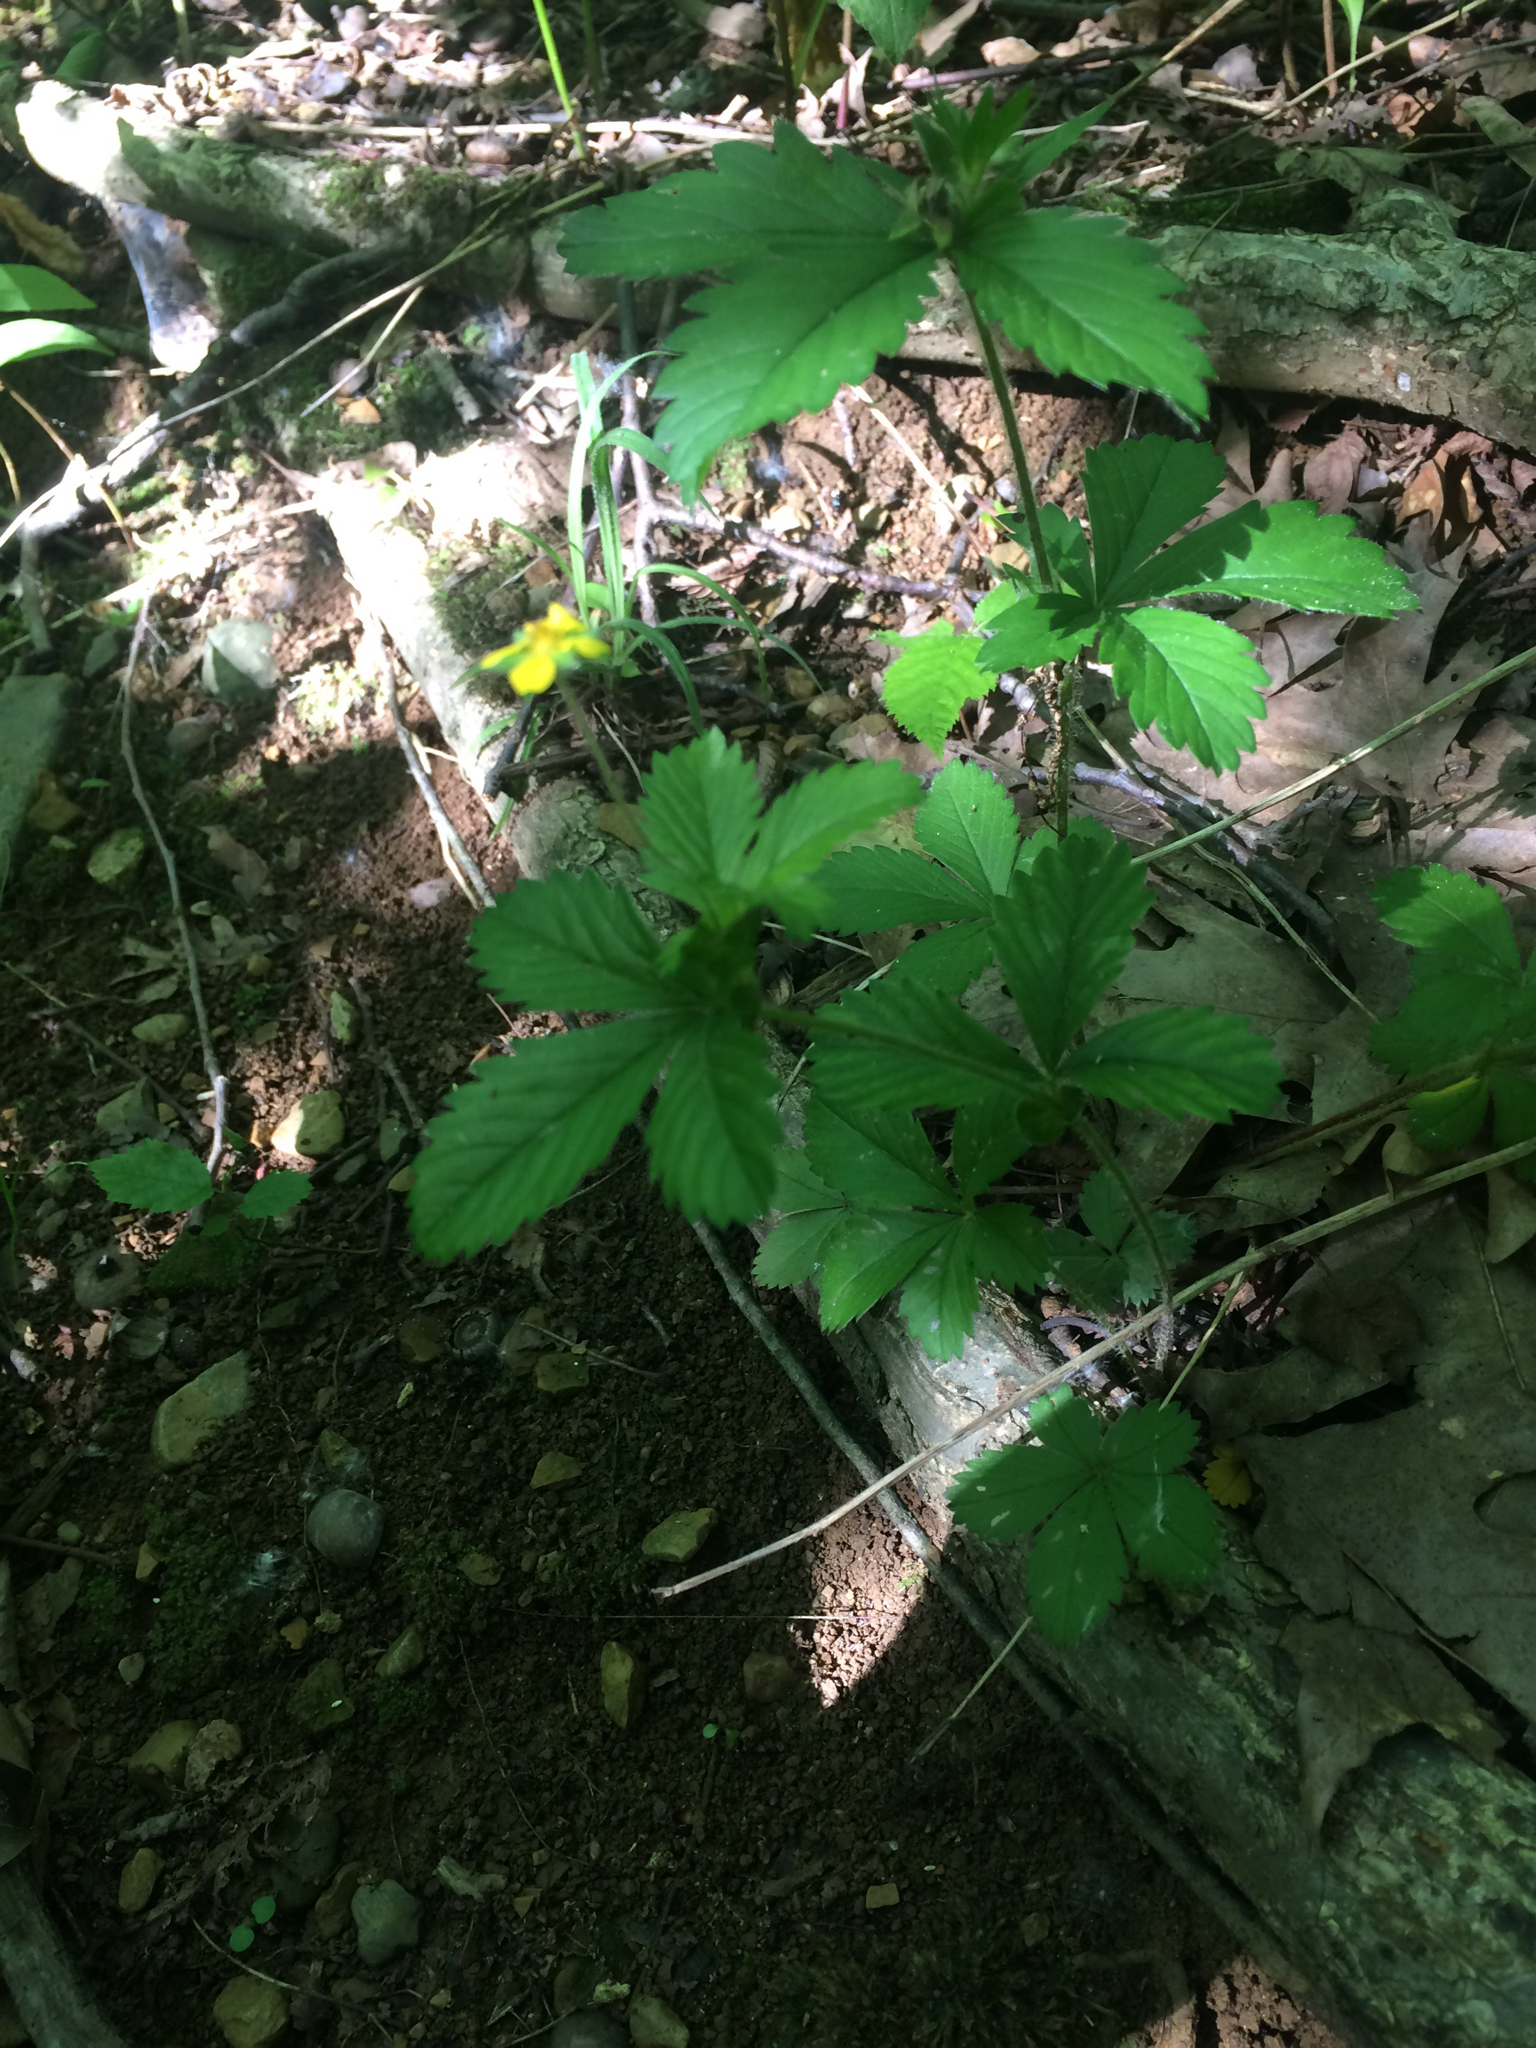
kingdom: Plantae
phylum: Tracheophyta
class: Magnoliopsida
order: Rosales
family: Rosaceae
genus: Potentilla
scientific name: Potentilla norvegica
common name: Ternate-leaved cinquefoil
